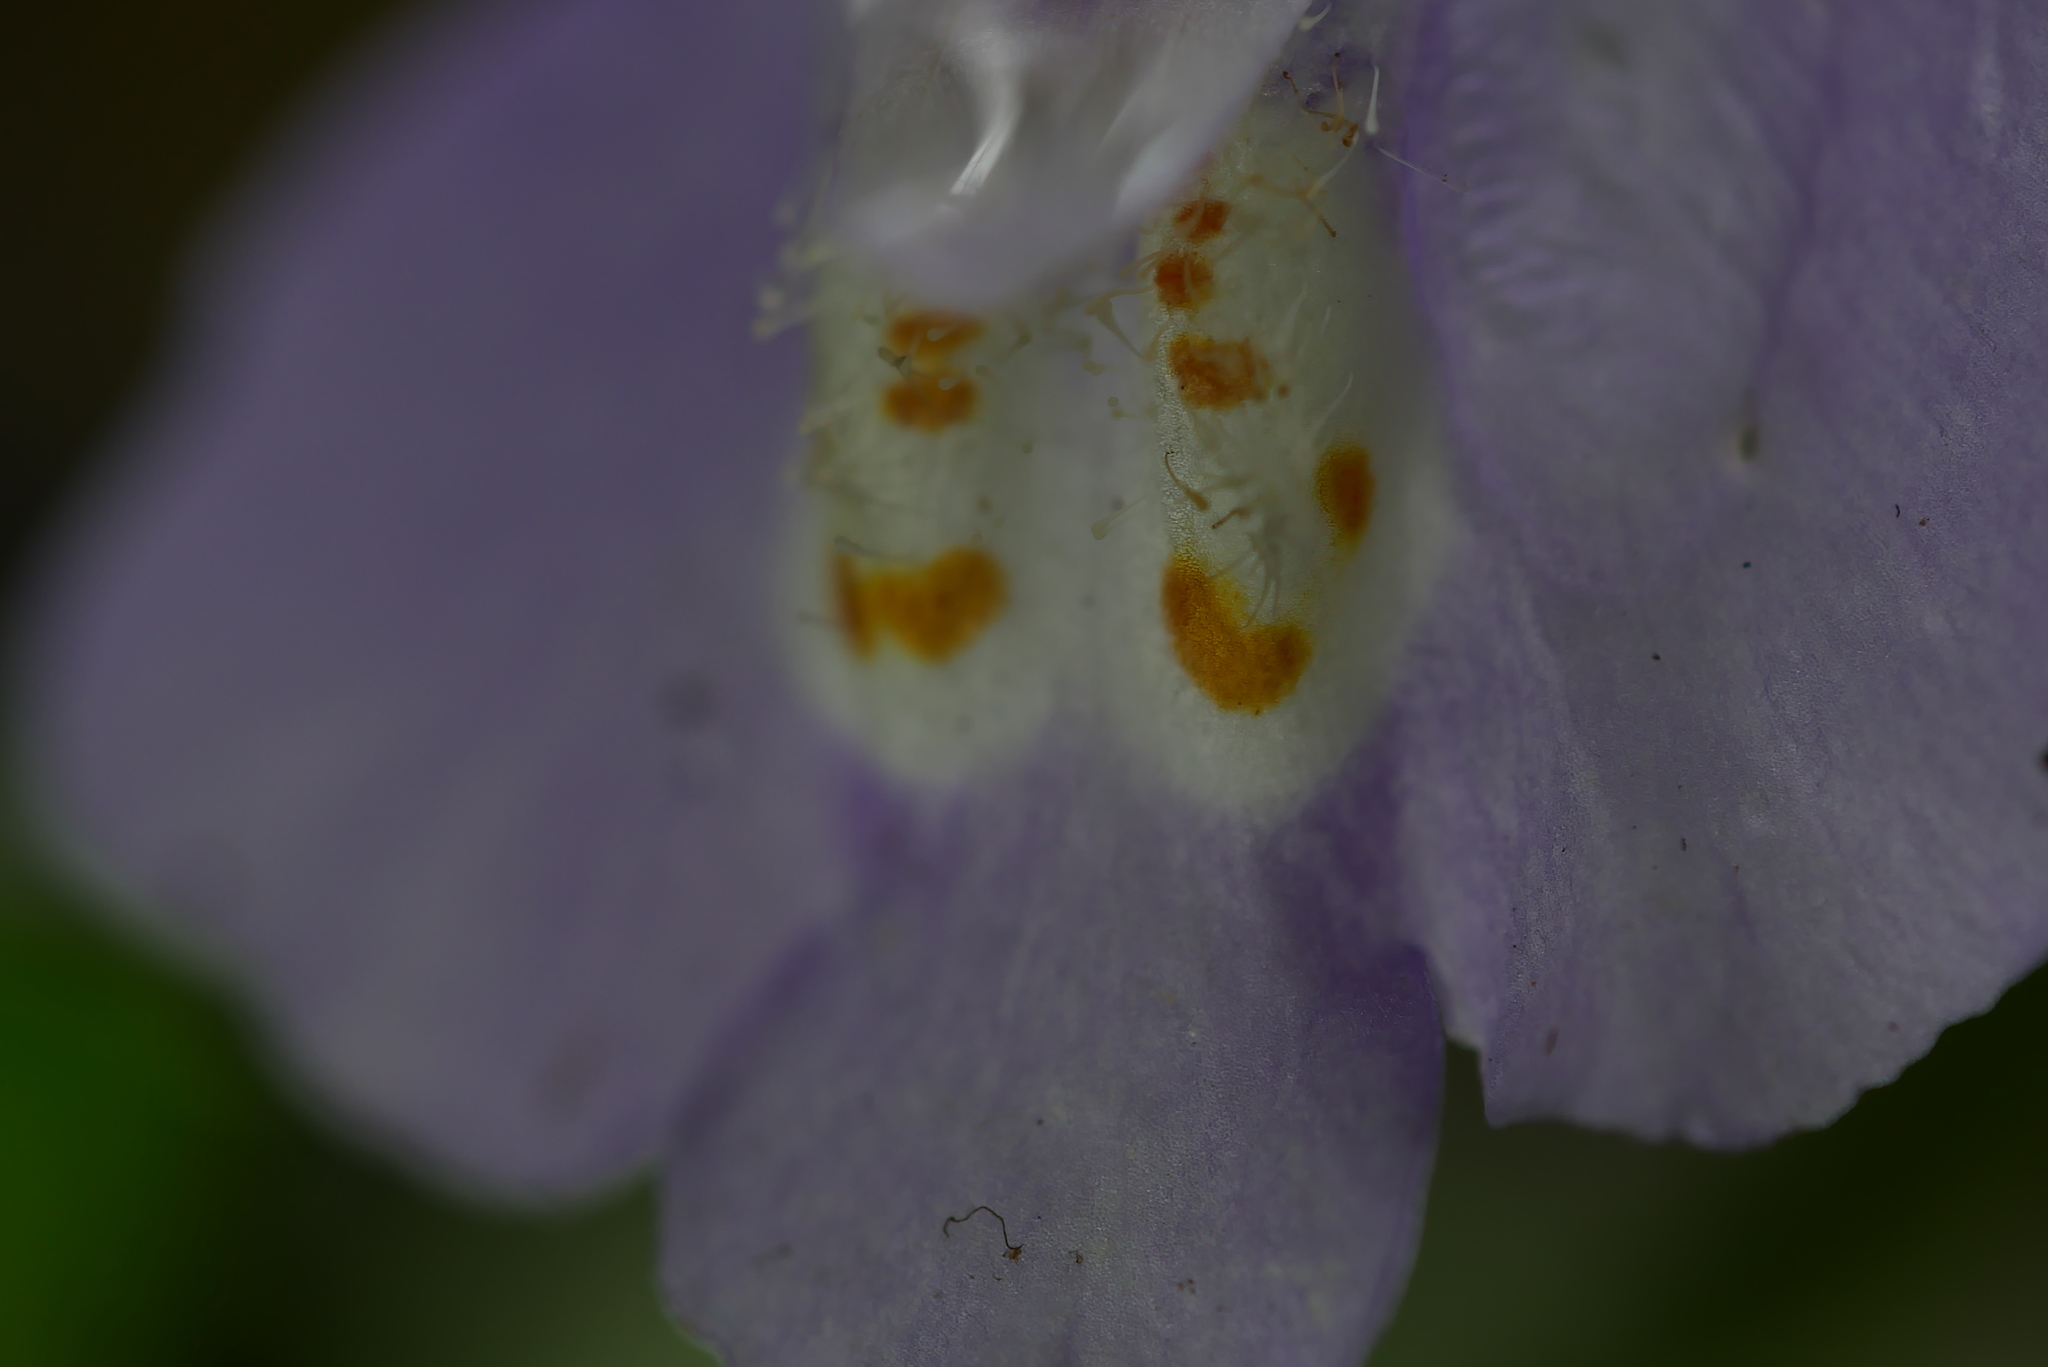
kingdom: Plantae
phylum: Tracheophyta
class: Magnoliopsida
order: Lamiales
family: Mazaceae
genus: Mazus
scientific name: Mazus fauriei
